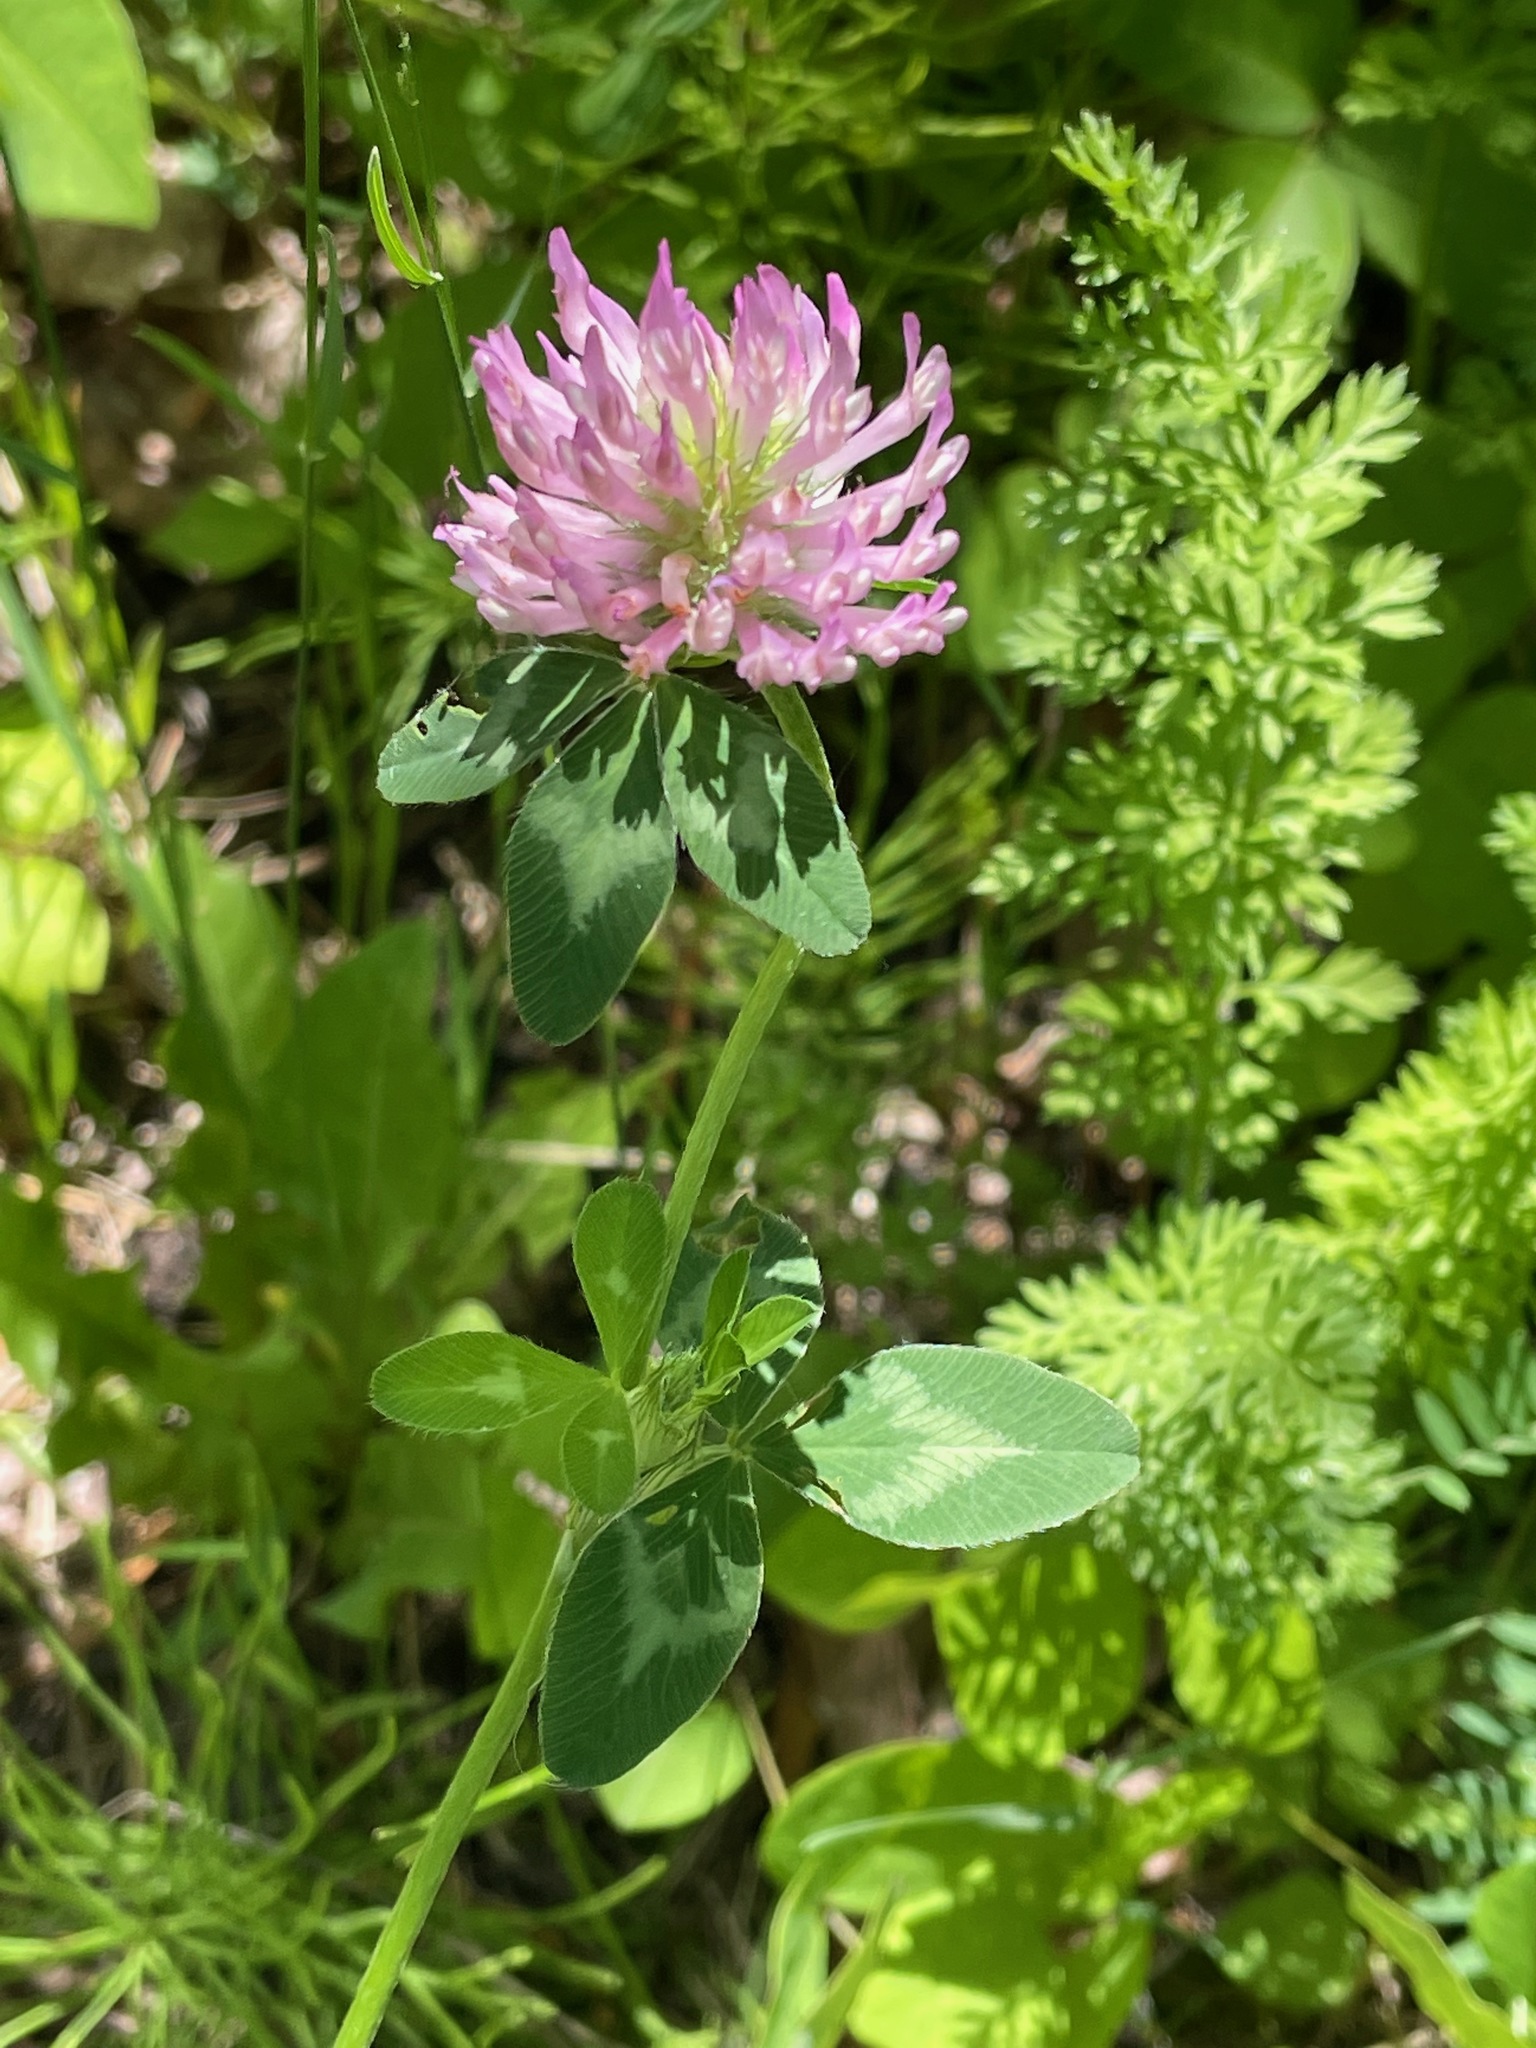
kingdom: Plantae
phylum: Tracheophyta
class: Magnoliopsida
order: Fabales
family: Fabaceae
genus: Trifolium
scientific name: Trifolium pratense
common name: Red clover
